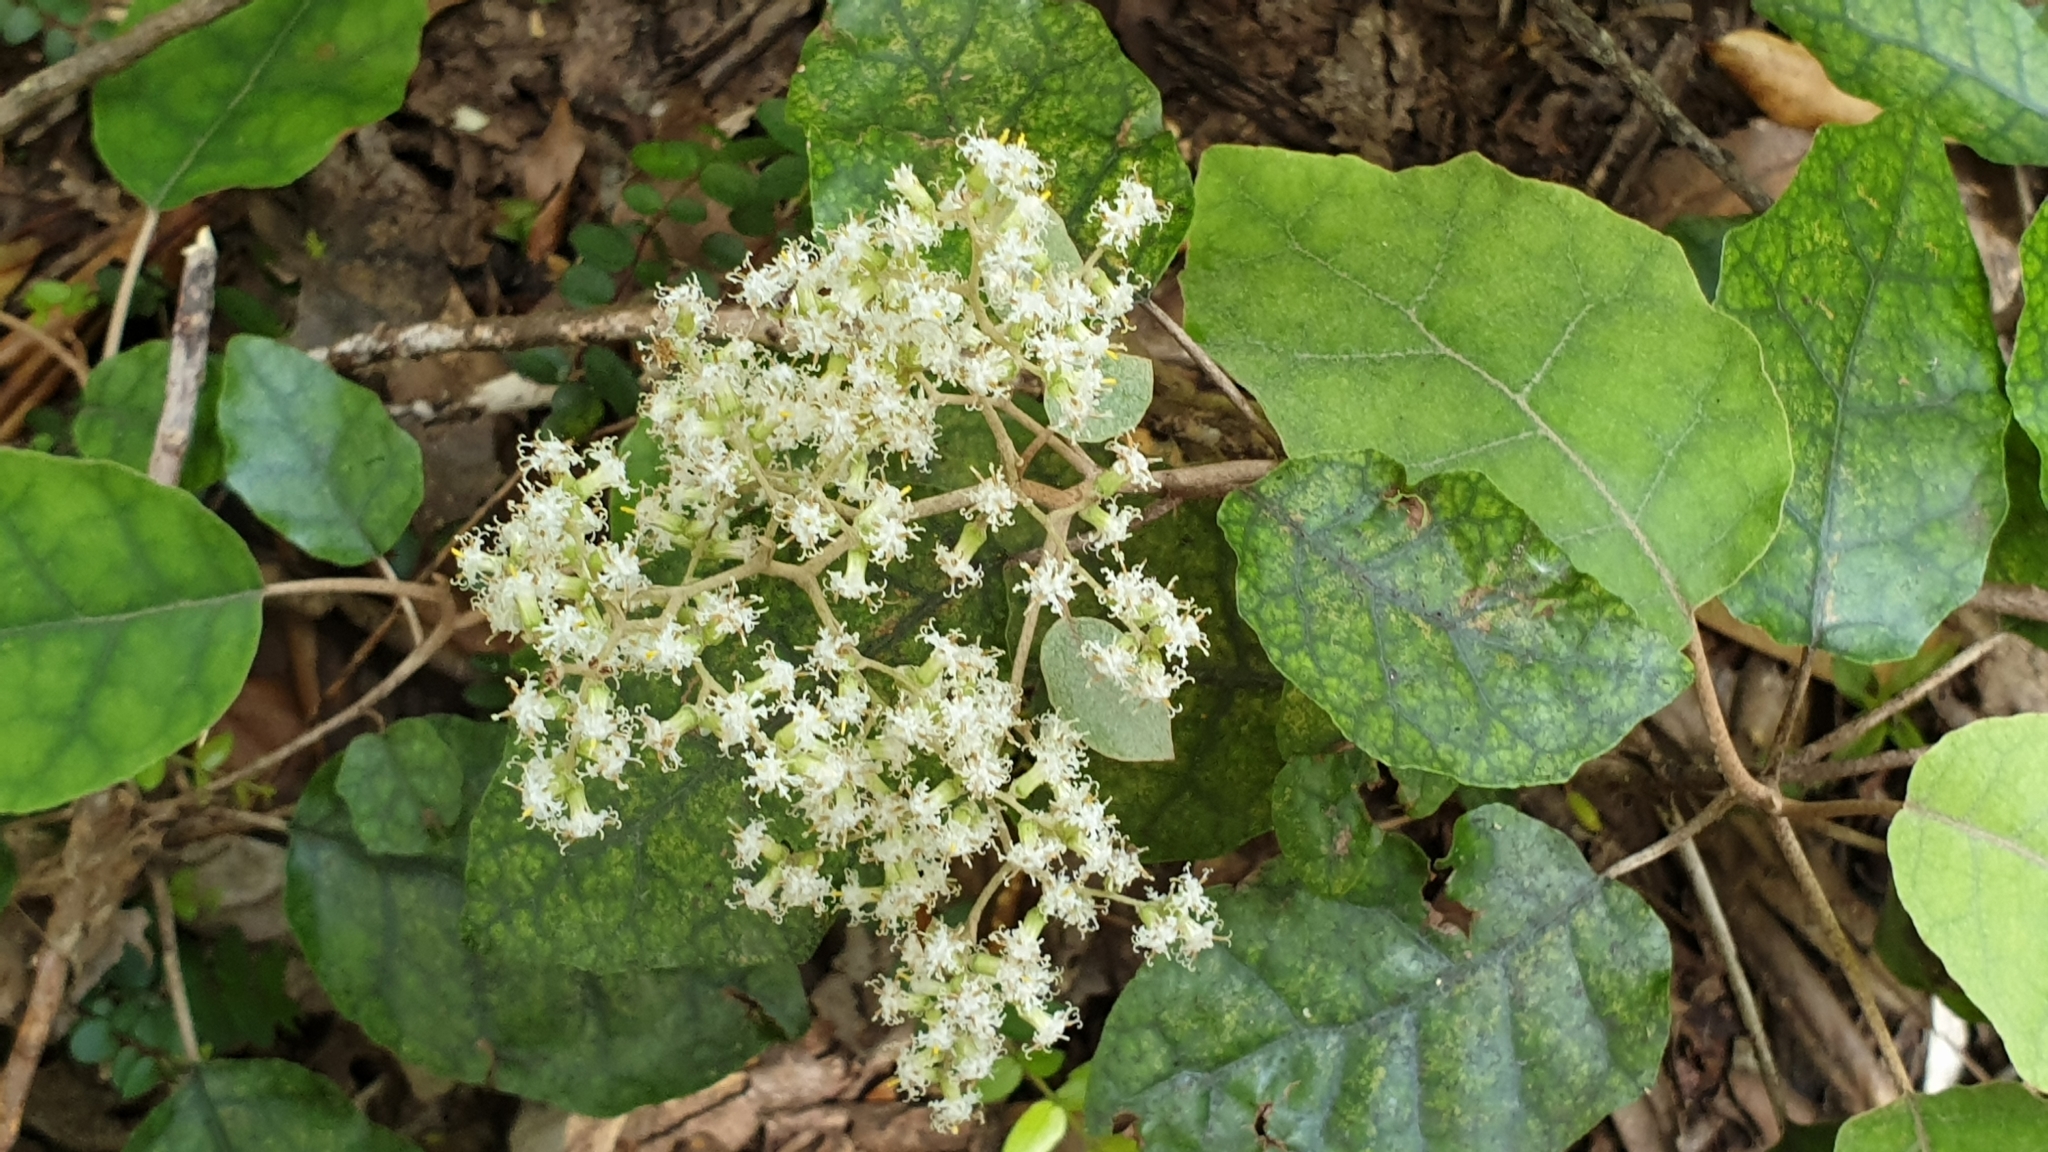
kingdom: Plantae
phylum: Tracheophyta
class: Magnoliopsida
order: Asterales
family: Asteraceae
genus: Brachyglottis
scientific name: Brachyglottis repanda
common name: Hedge ragwort
